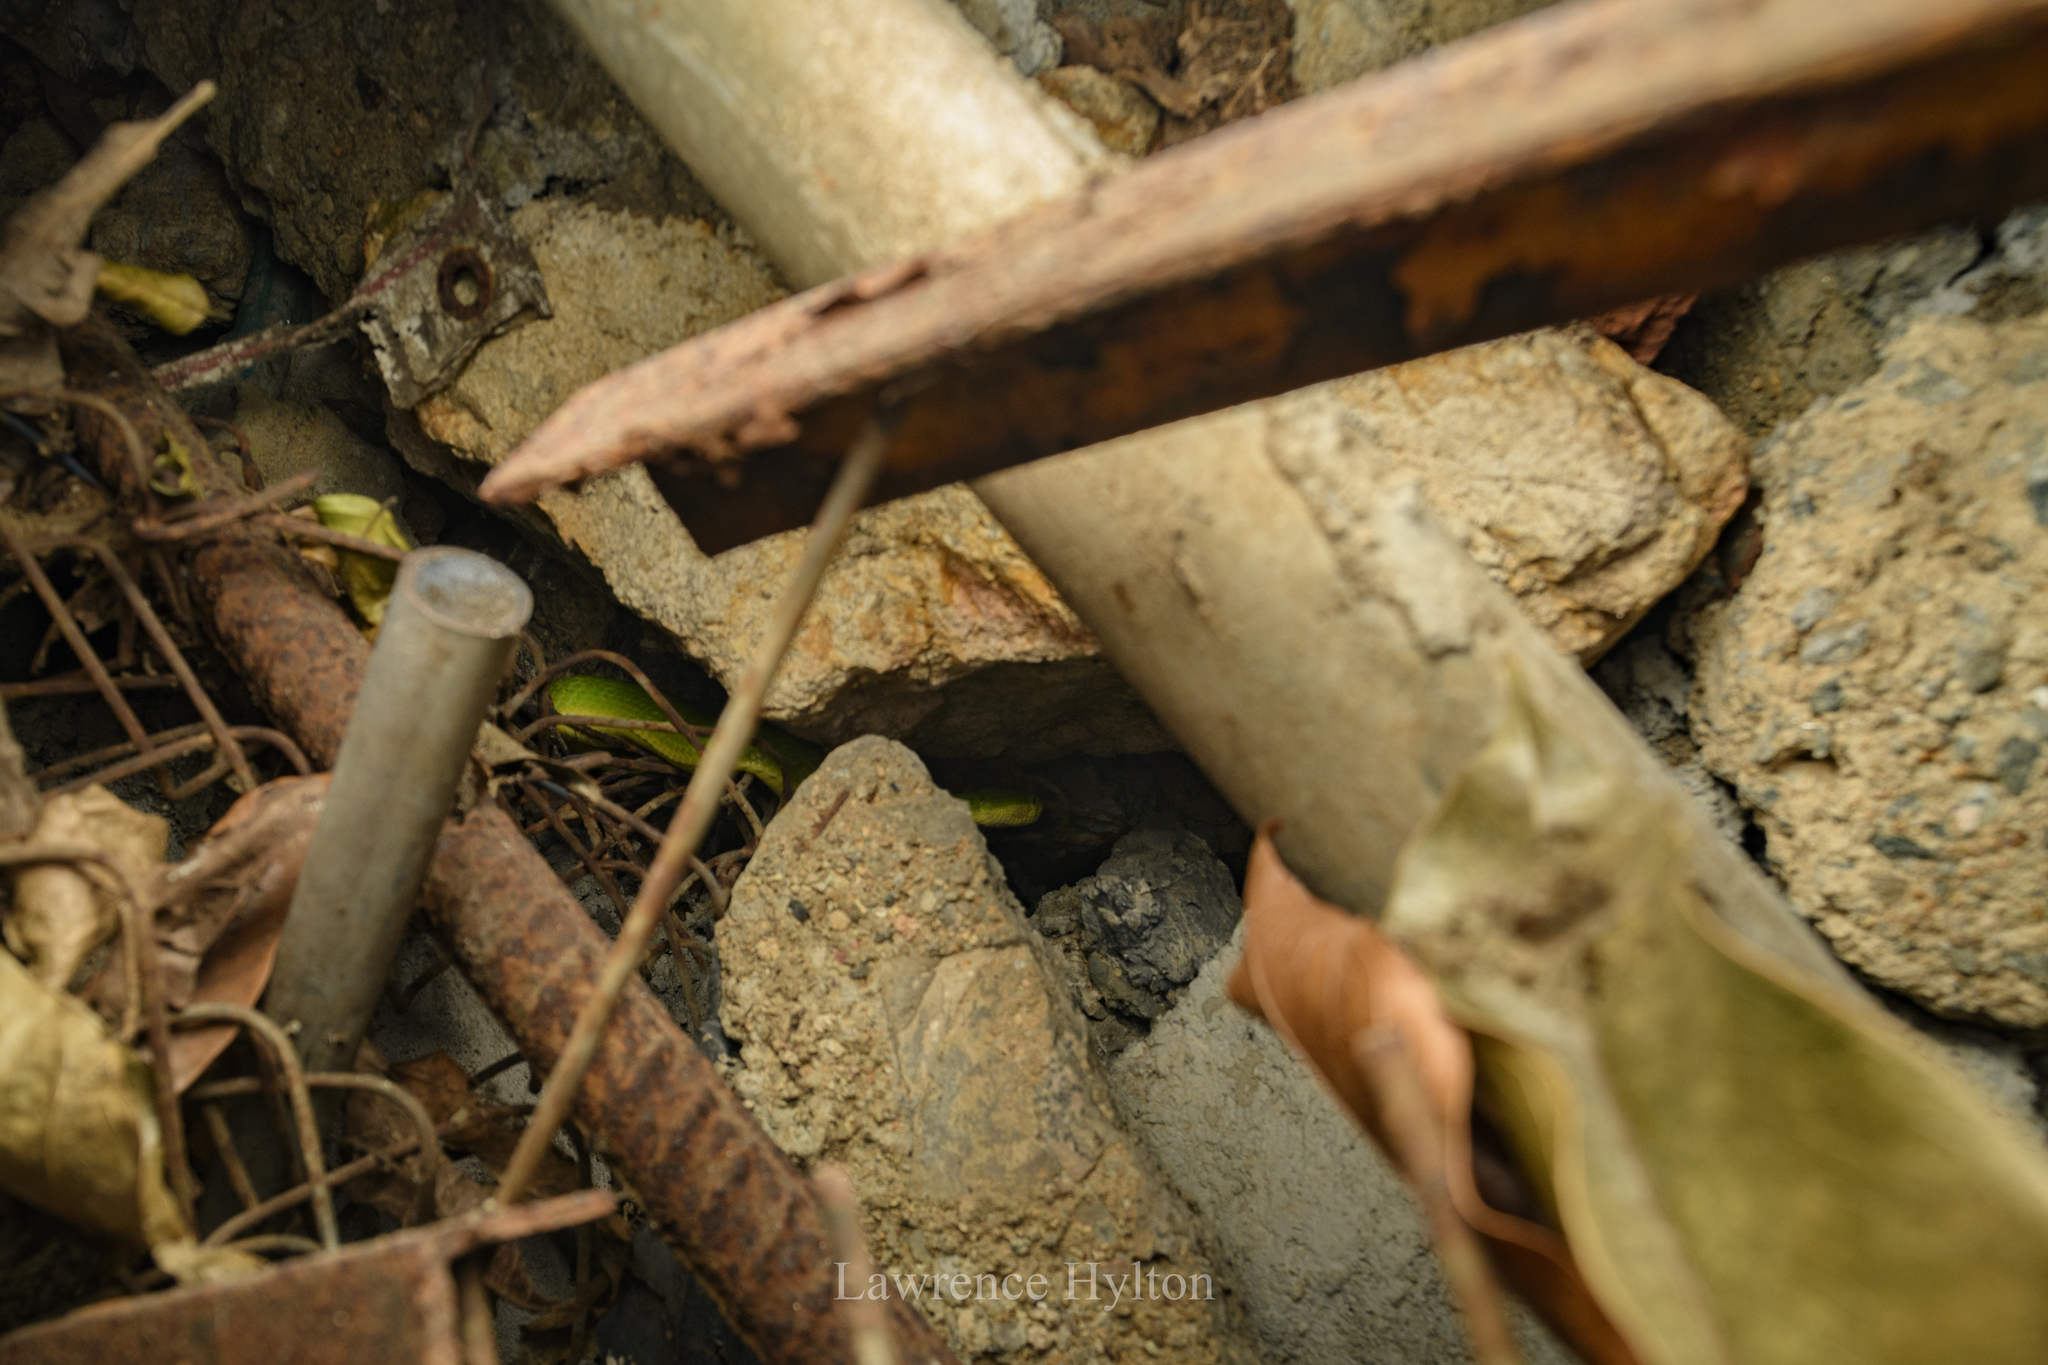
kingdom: Animalia
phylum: Chordata
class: Squamata
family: Viperidae
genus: Trimeresurus
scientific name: Trimeresurus albolabris
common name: White-lipped pitviper
